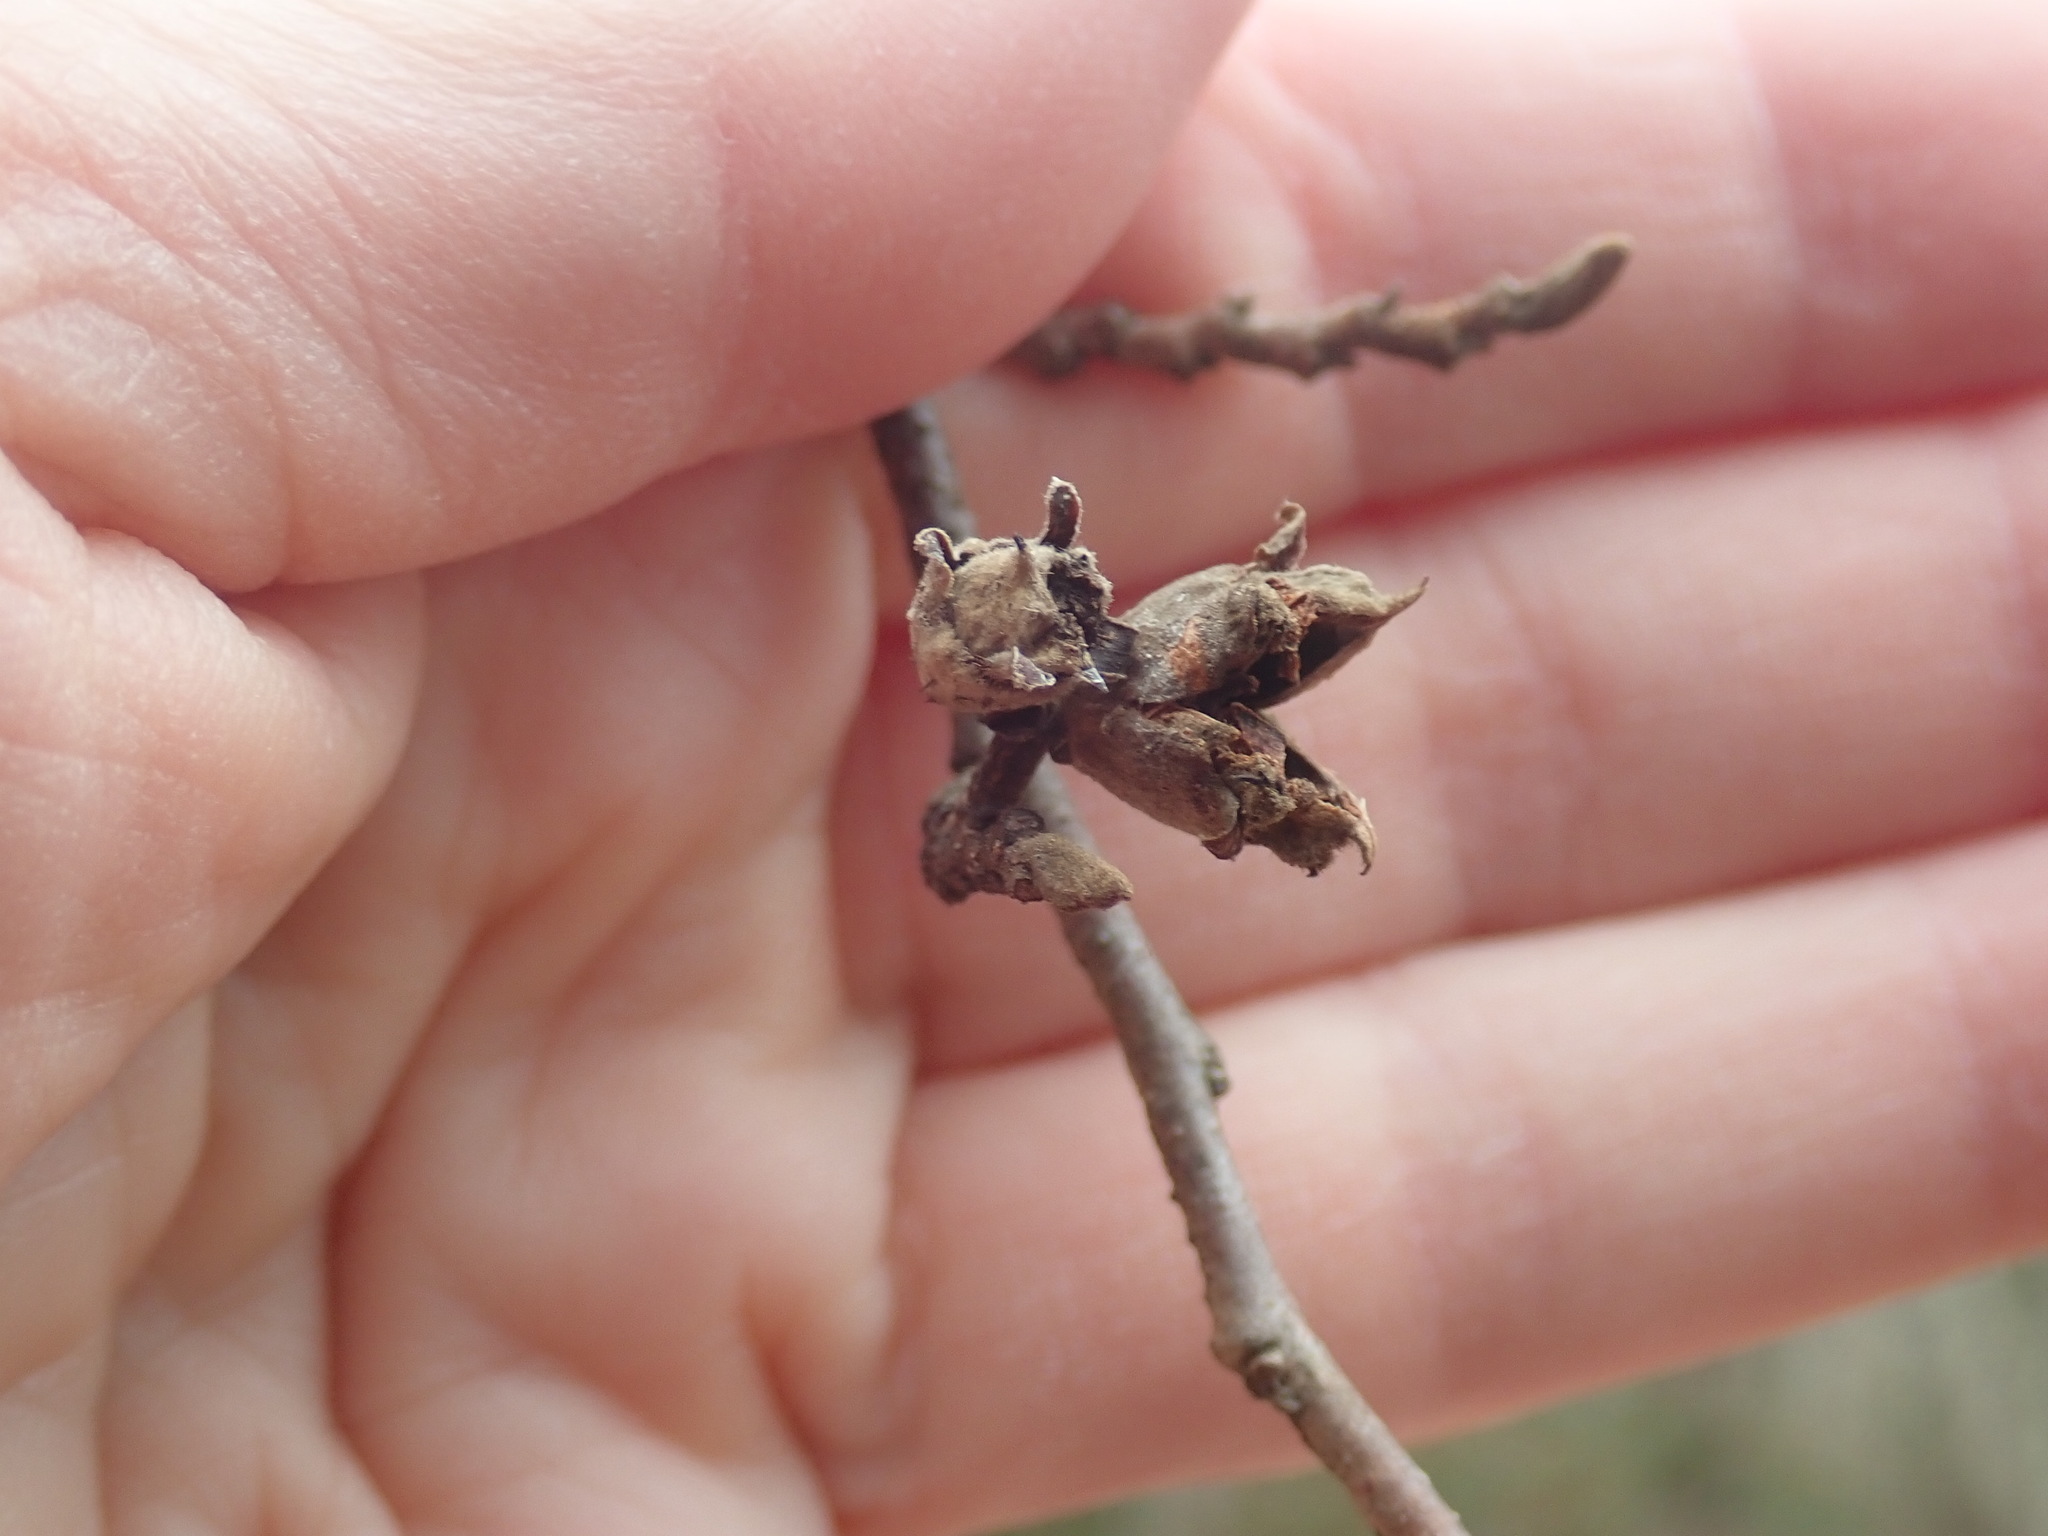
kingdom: Plantae
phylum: Tracheophyta
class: Magnoliopsida
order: Saxifragales
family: Hamamelidaceae
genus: Hamamelis
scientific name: Hamamelis virginiana
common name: Witch-hazel
